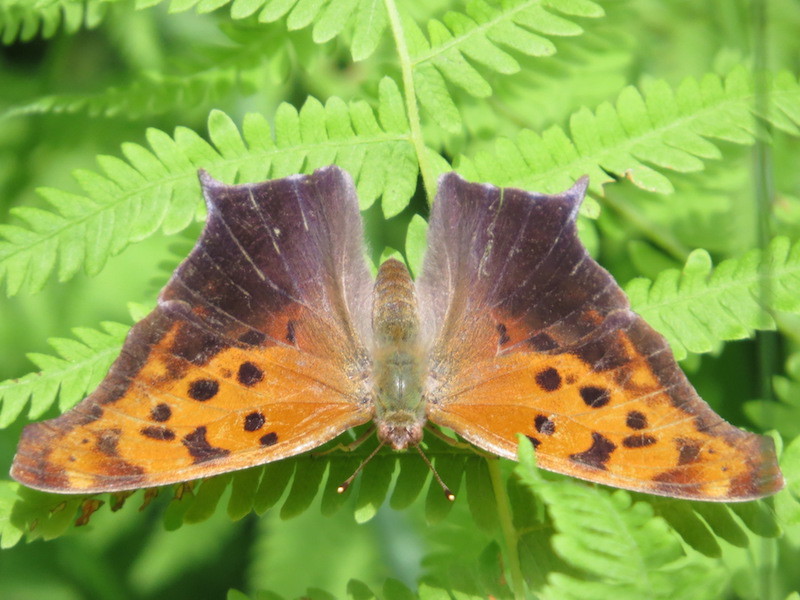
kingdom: Animalia
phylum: Arthropoda
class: Insecta
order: Lepidoptera
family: Nymphalidae
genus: Polygonia
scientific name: Polygonia interrogationis
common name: Question mark
